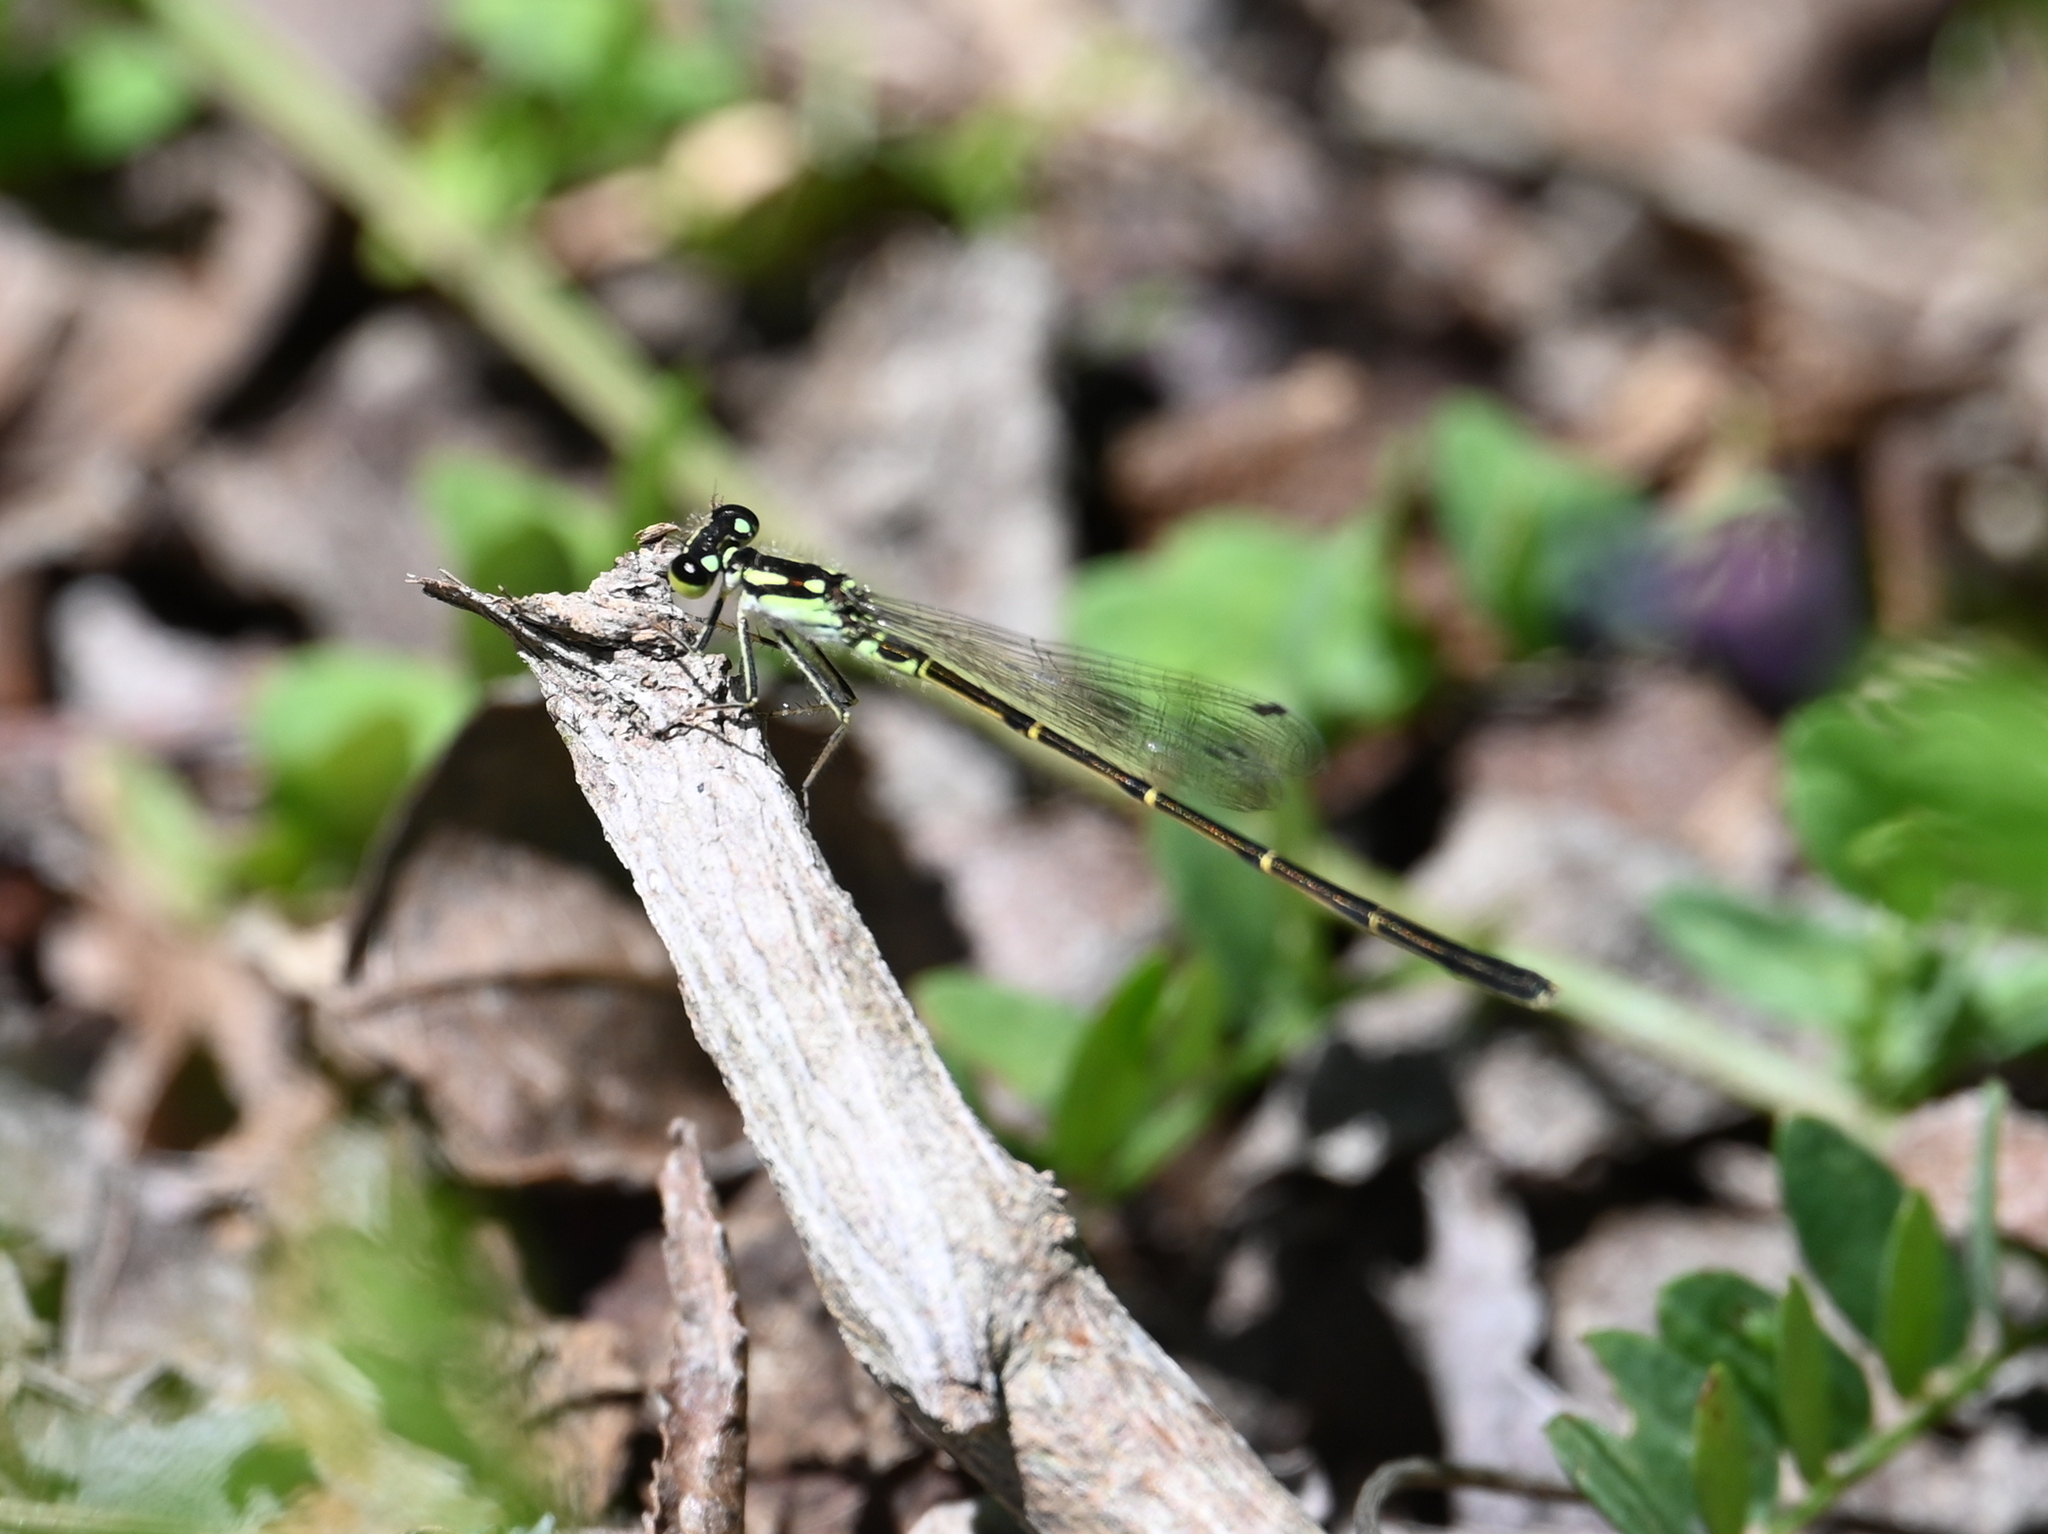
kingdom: Animalia
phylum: Arthropoda
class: Insecta
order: Odonata
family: Coenagrionidae
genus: Ischnura
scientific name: Ischnura posita
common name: Fragile forktail
